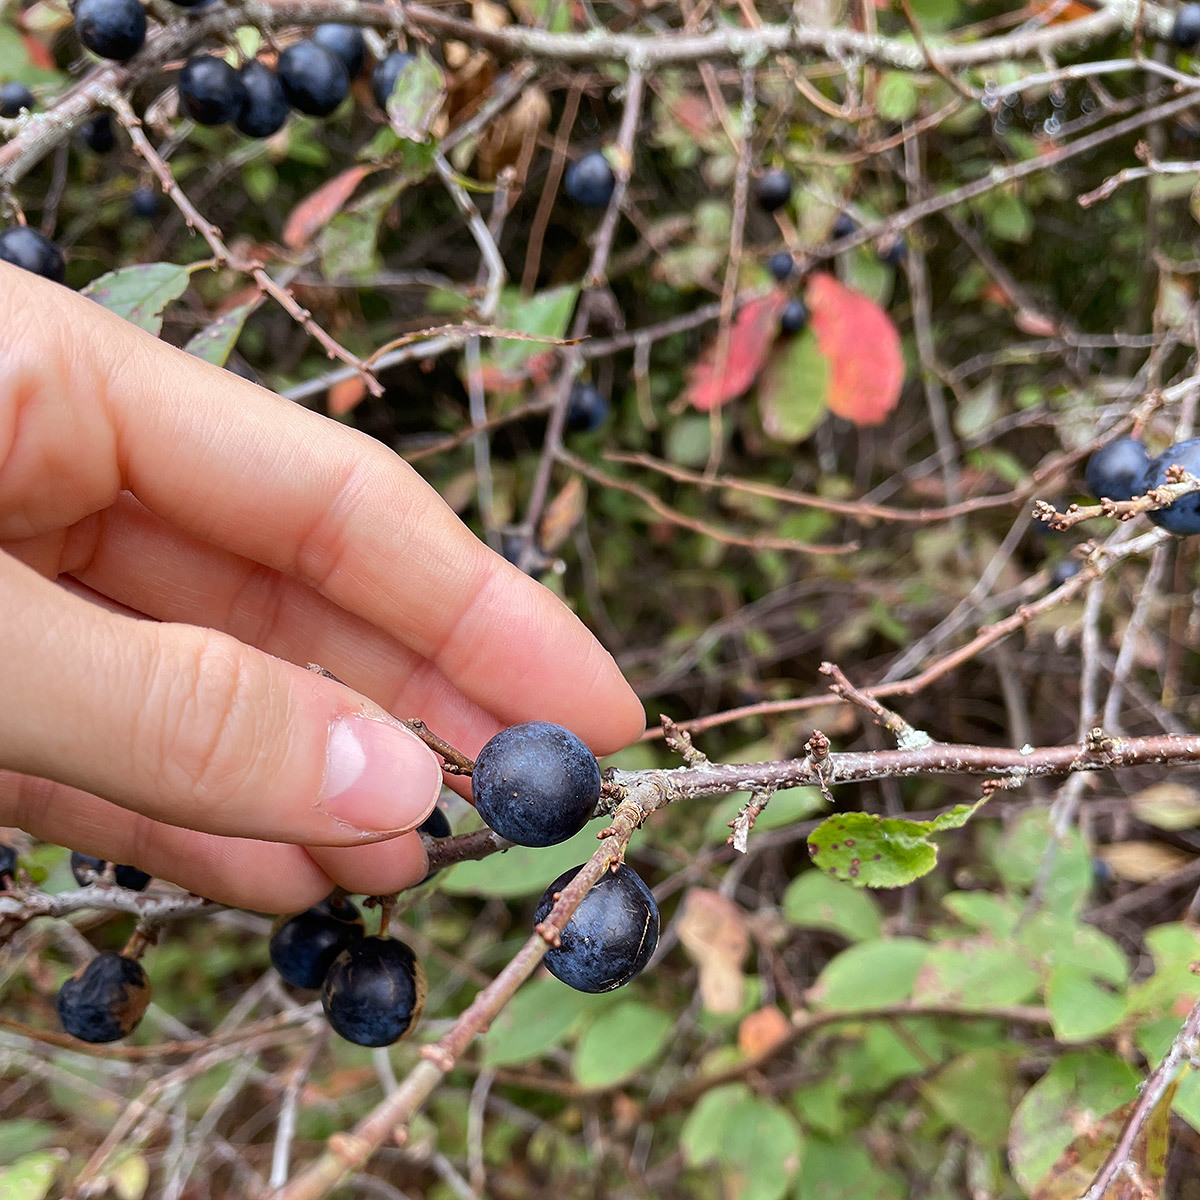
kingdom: Plantae
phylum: Tracheophyta
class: Magnoliopsida
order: Rosales
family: Rosaceae
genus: Prunus
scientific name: Prunus spinosa
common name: Blackthorn
